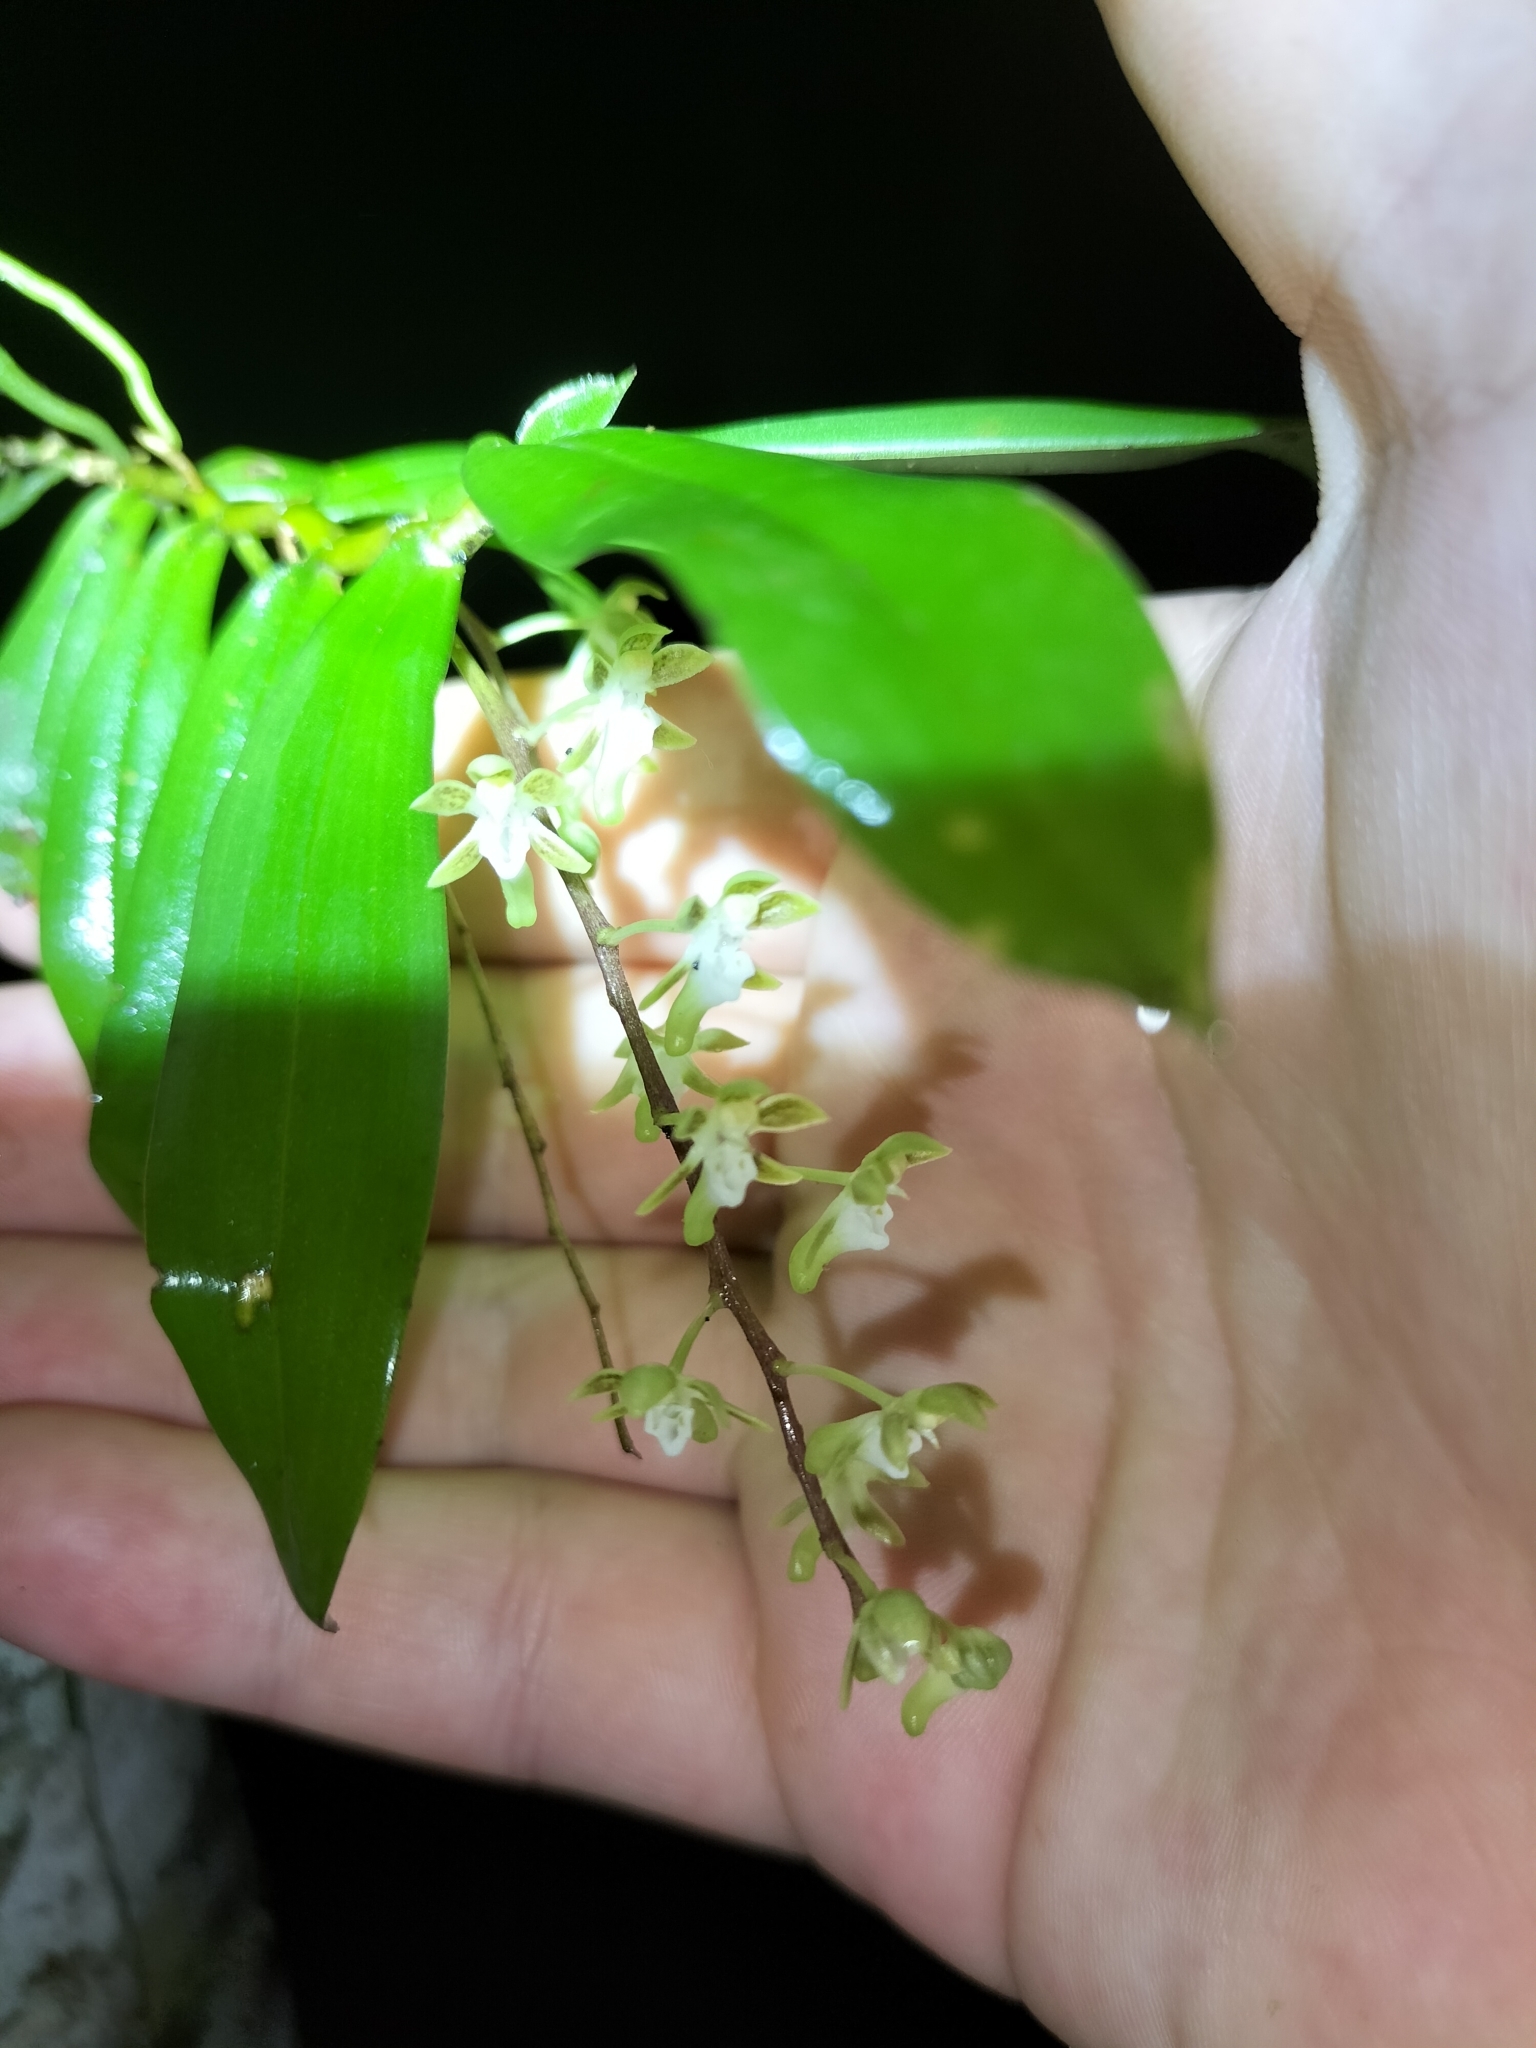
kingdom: Plantae
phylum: Tracheophyta
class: Liliopsida
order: Asparagales
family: Orchidaceae
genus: Plectorrhiza
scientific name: Plectorrhiza brevilabris
